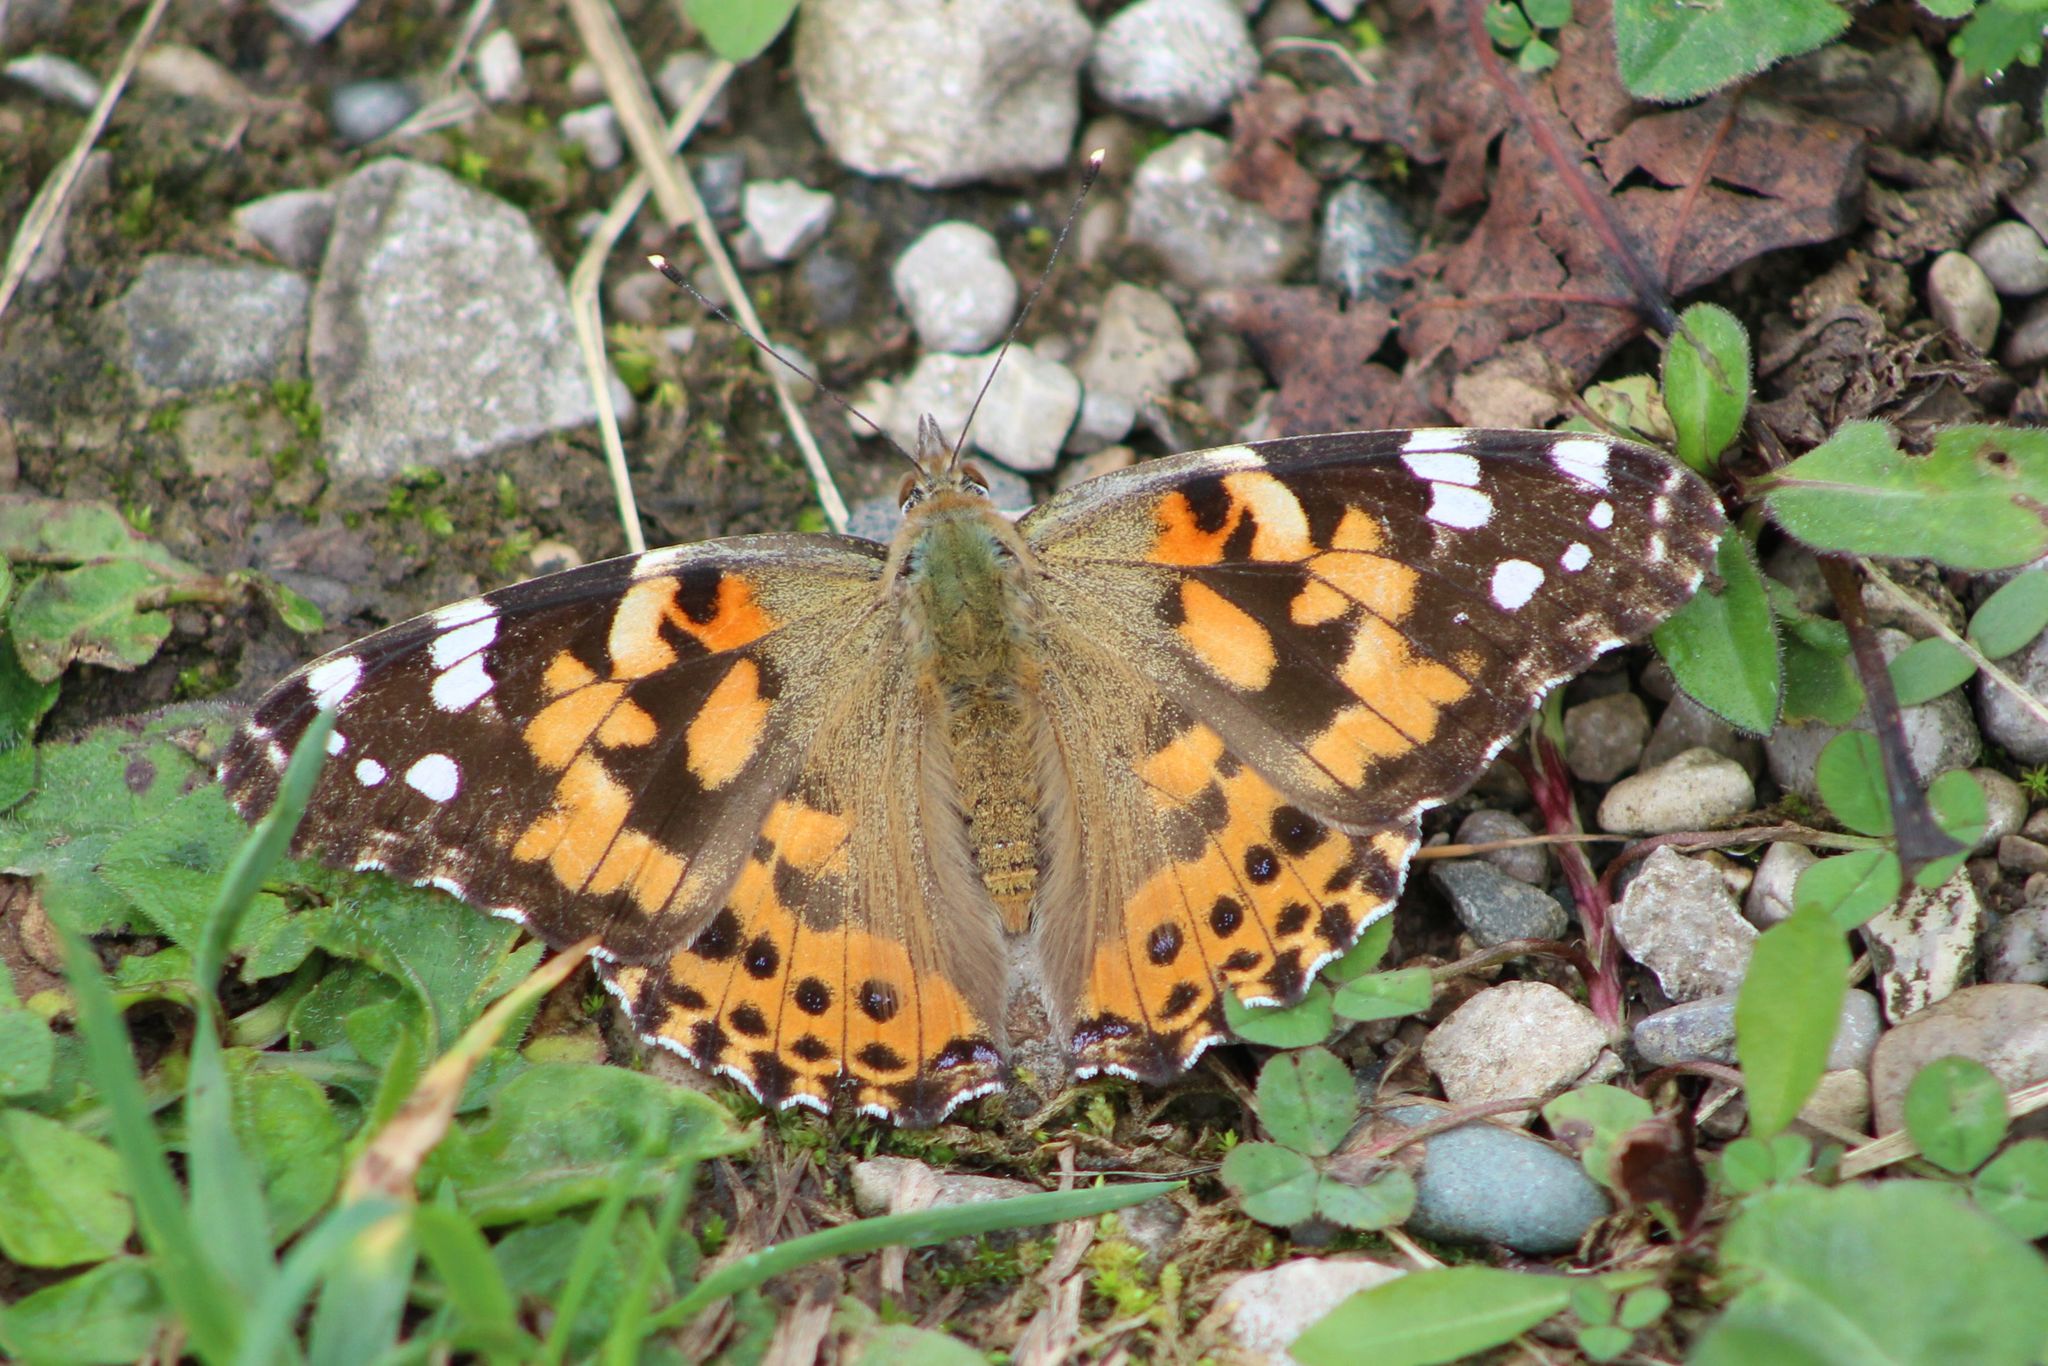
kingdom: Animalia
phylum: Arthropoda
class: Insecta
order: Lepidoptera
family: Nymphalidae
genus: Vanessa
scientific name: Vanessa cardui
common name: Painted lady
